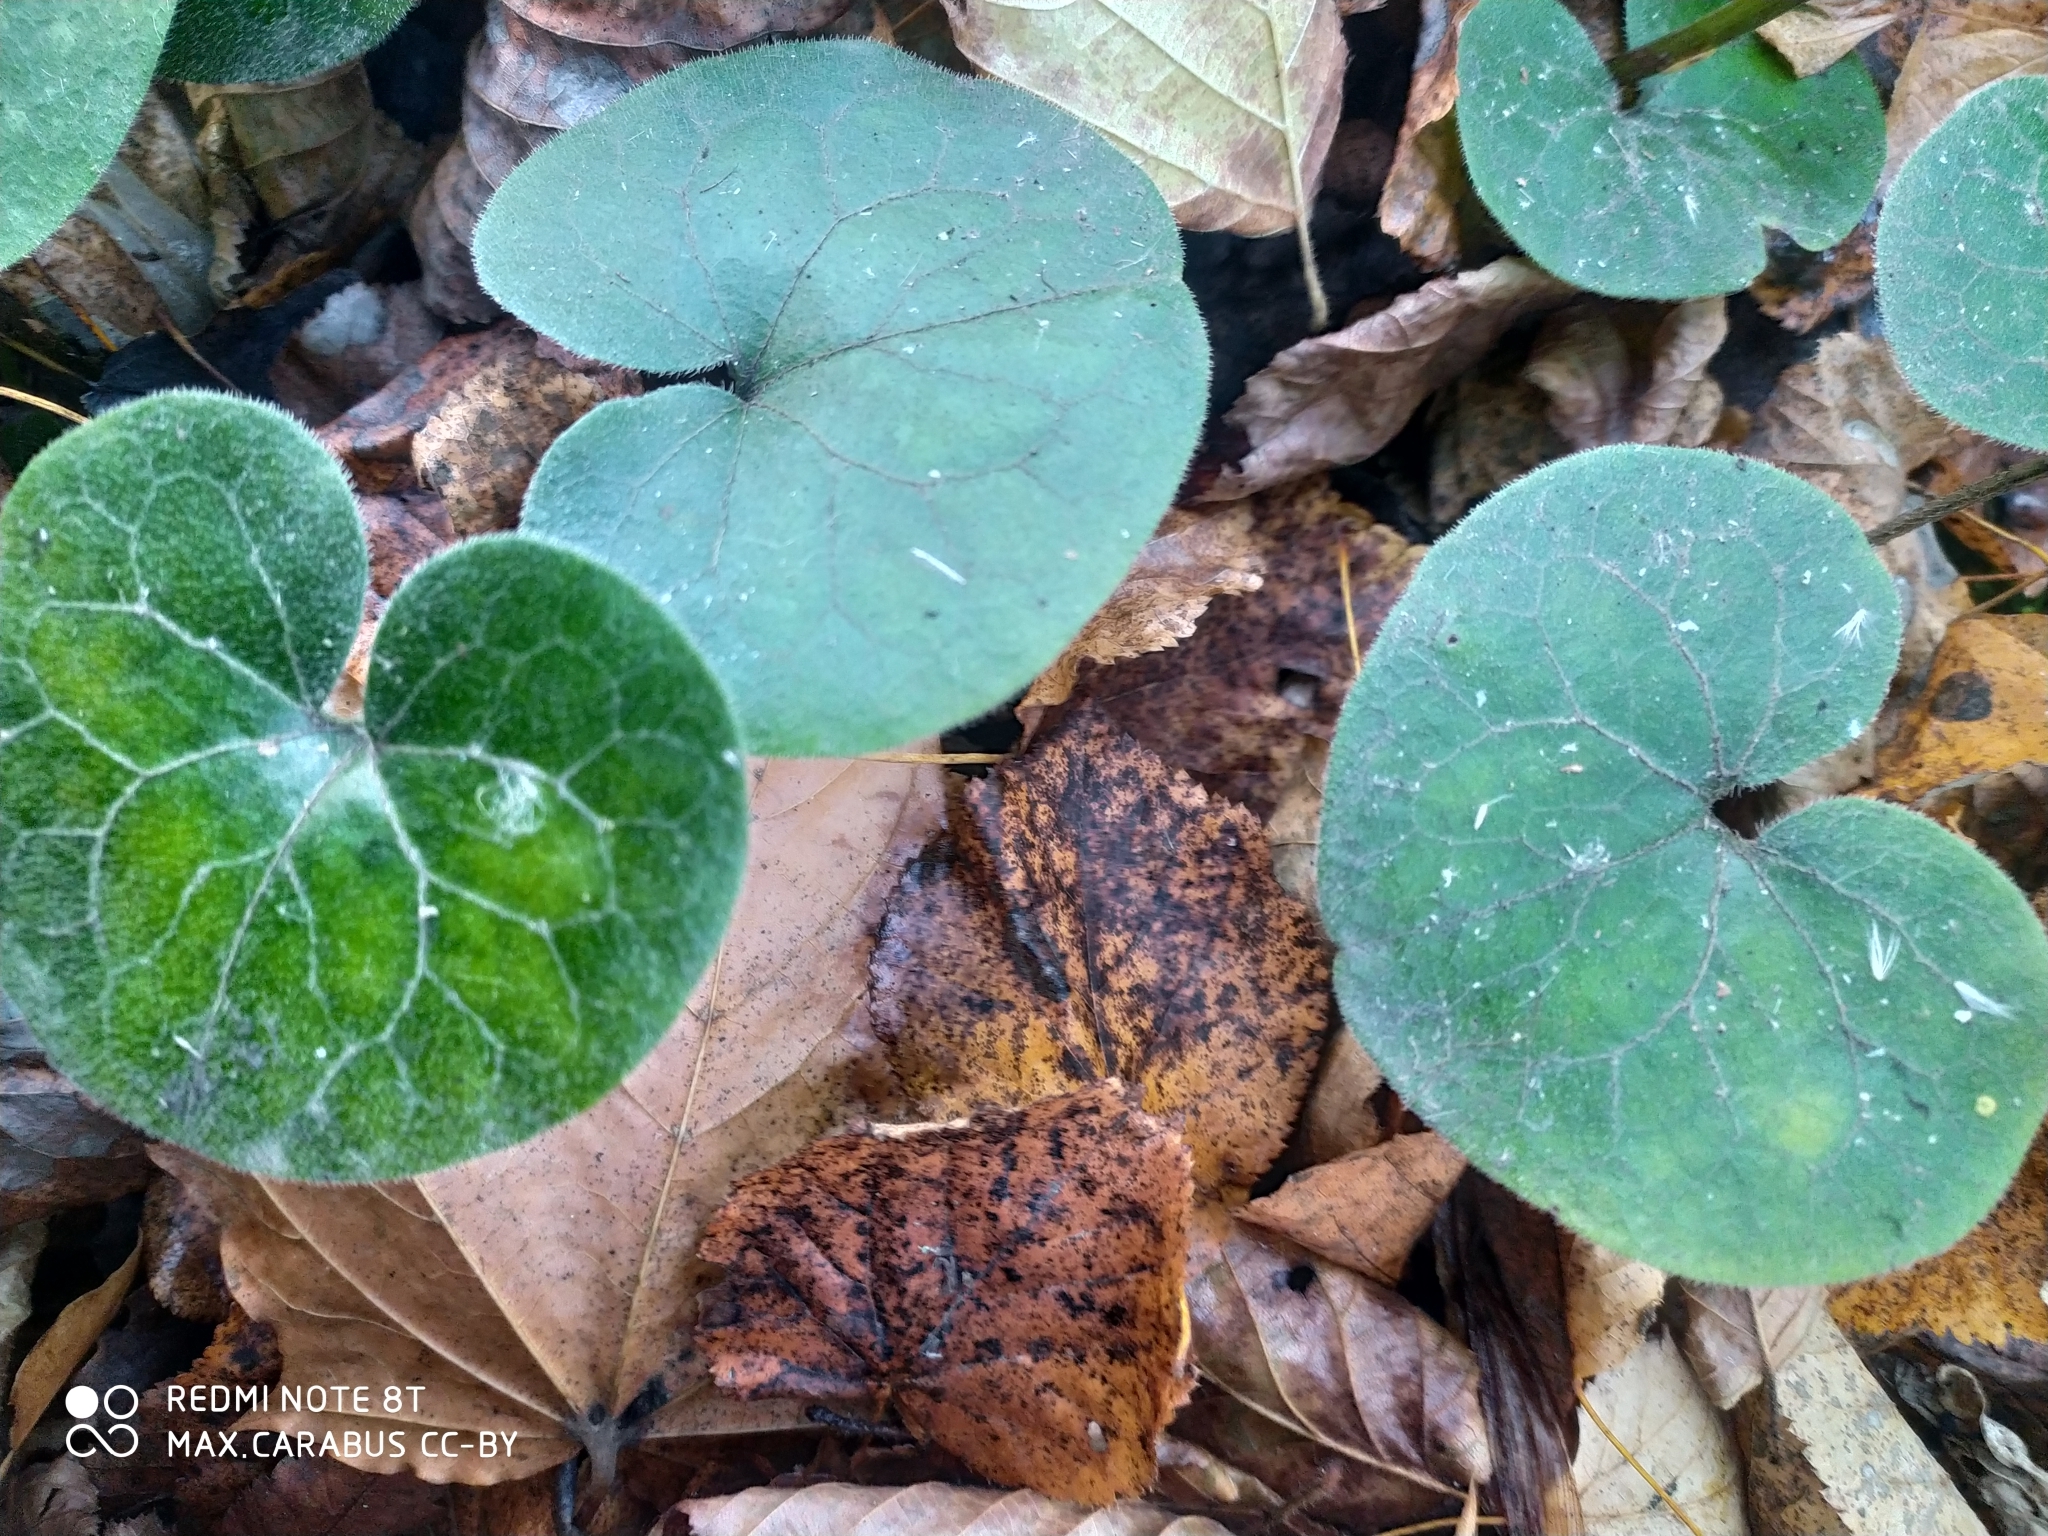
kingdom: Plantae
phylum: Tracheophyta
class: Magnoliopsida
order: Piperales
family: Aristolochiaceae
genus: Asarum
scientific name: Asarum europaeum
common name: Asarabacca
